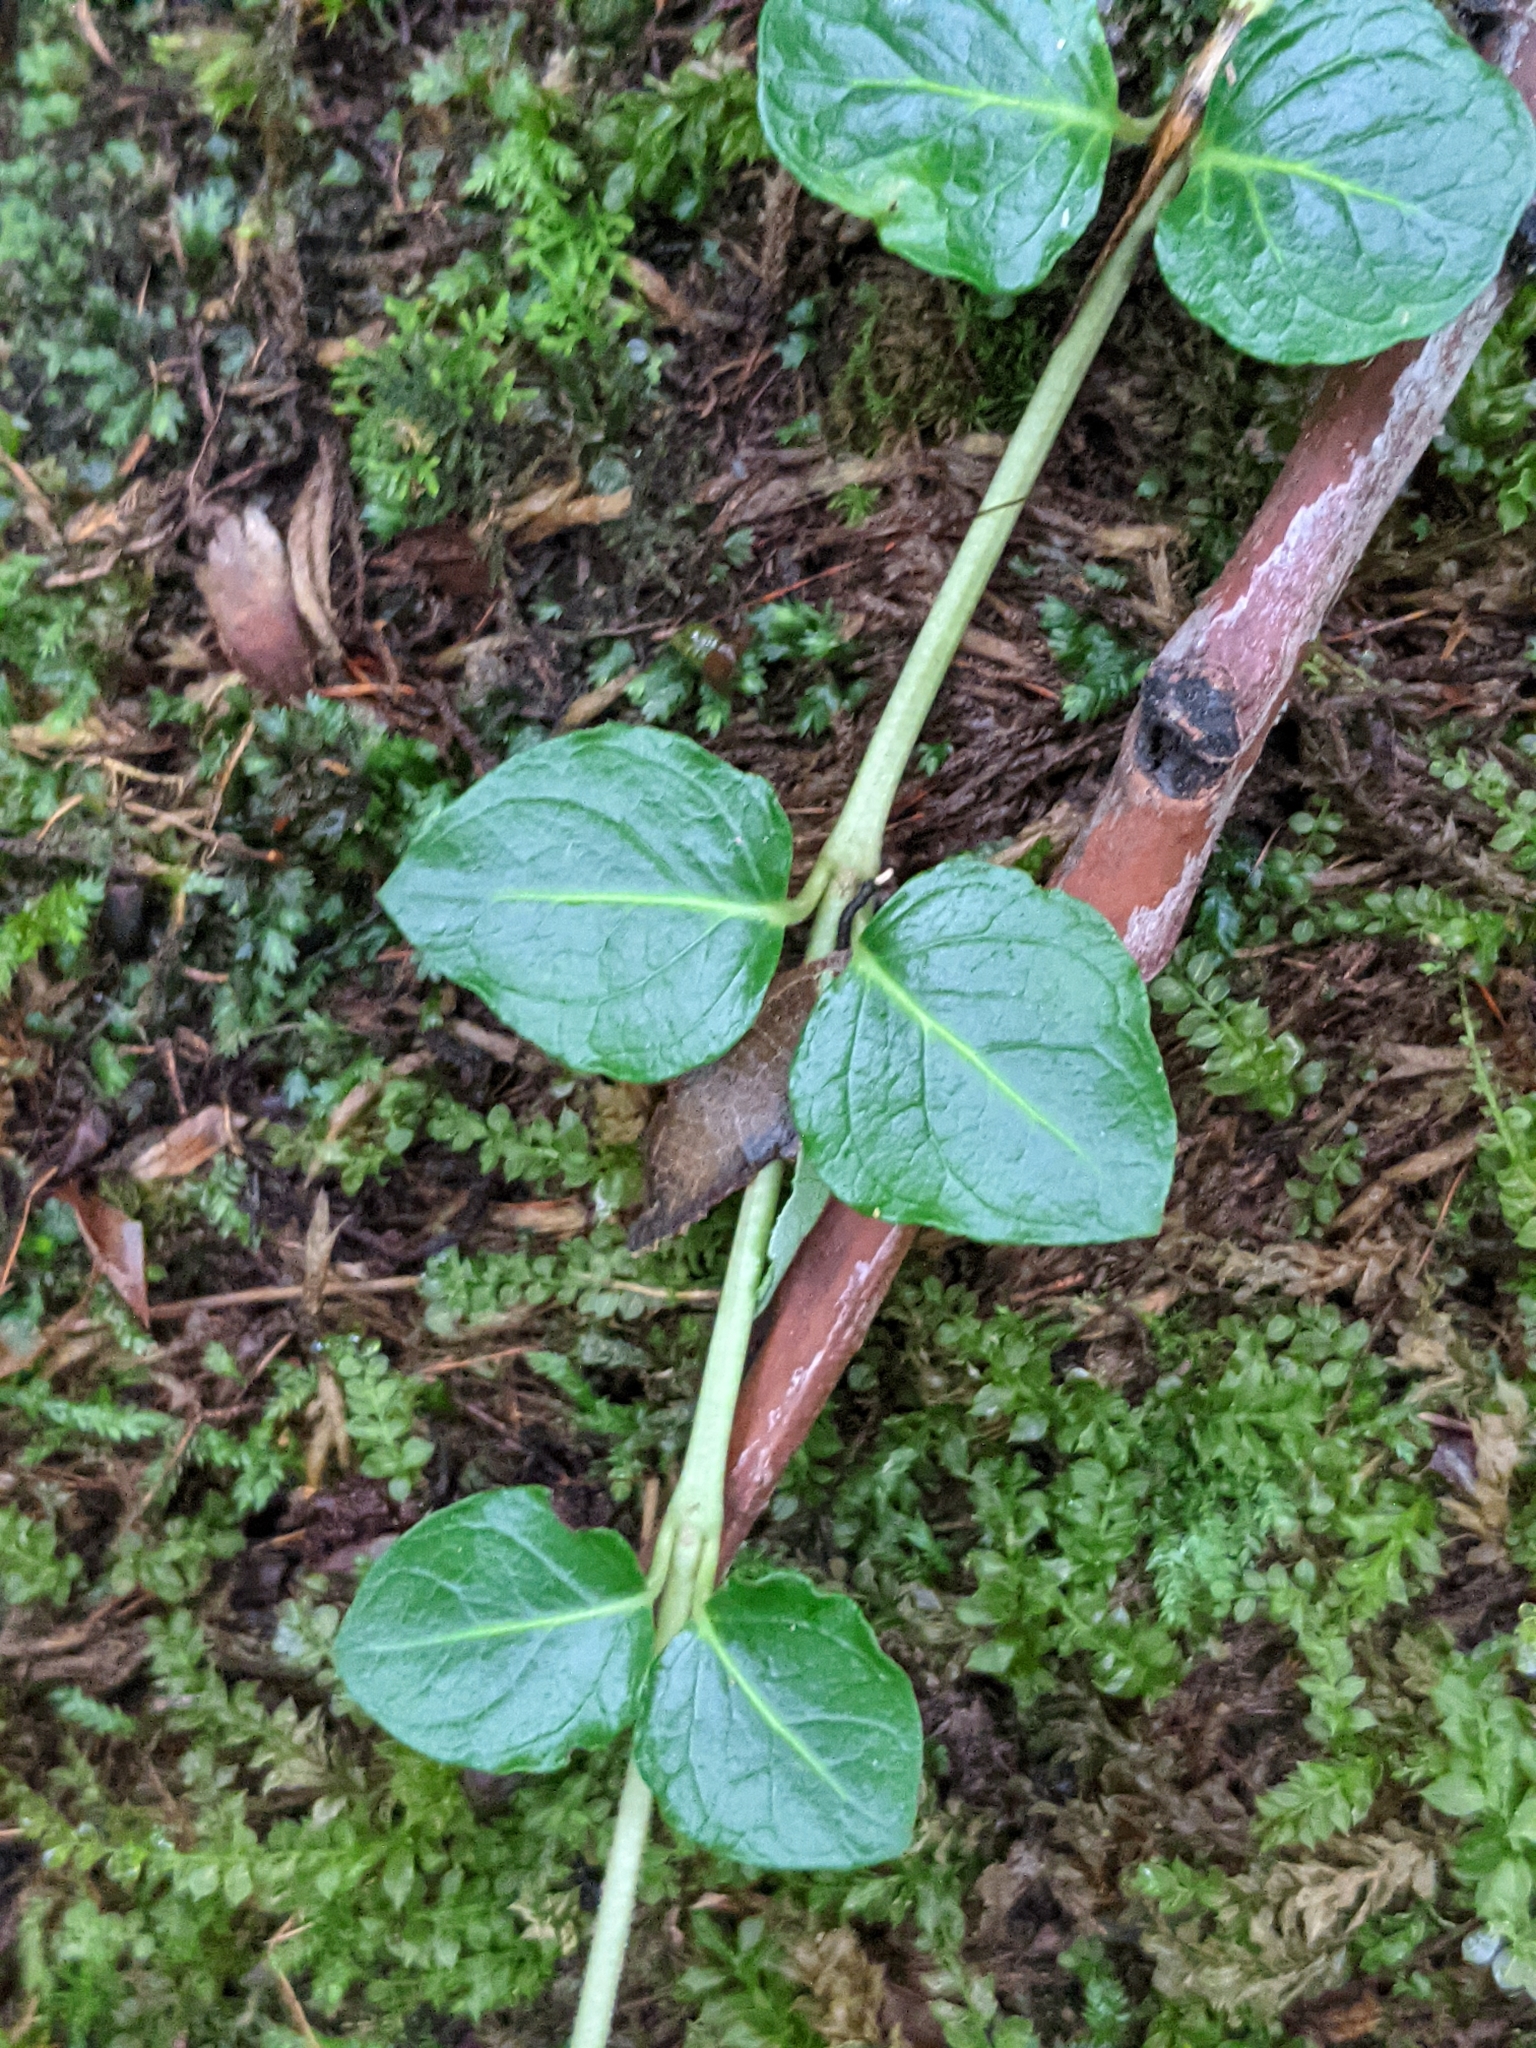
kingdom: Plantae
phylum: Tracheophyta
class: Magnoliopsida
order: Gentianales
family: Rubiaceae
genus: Mitchella
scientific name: Mitchella repens
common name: Partridge-berry
